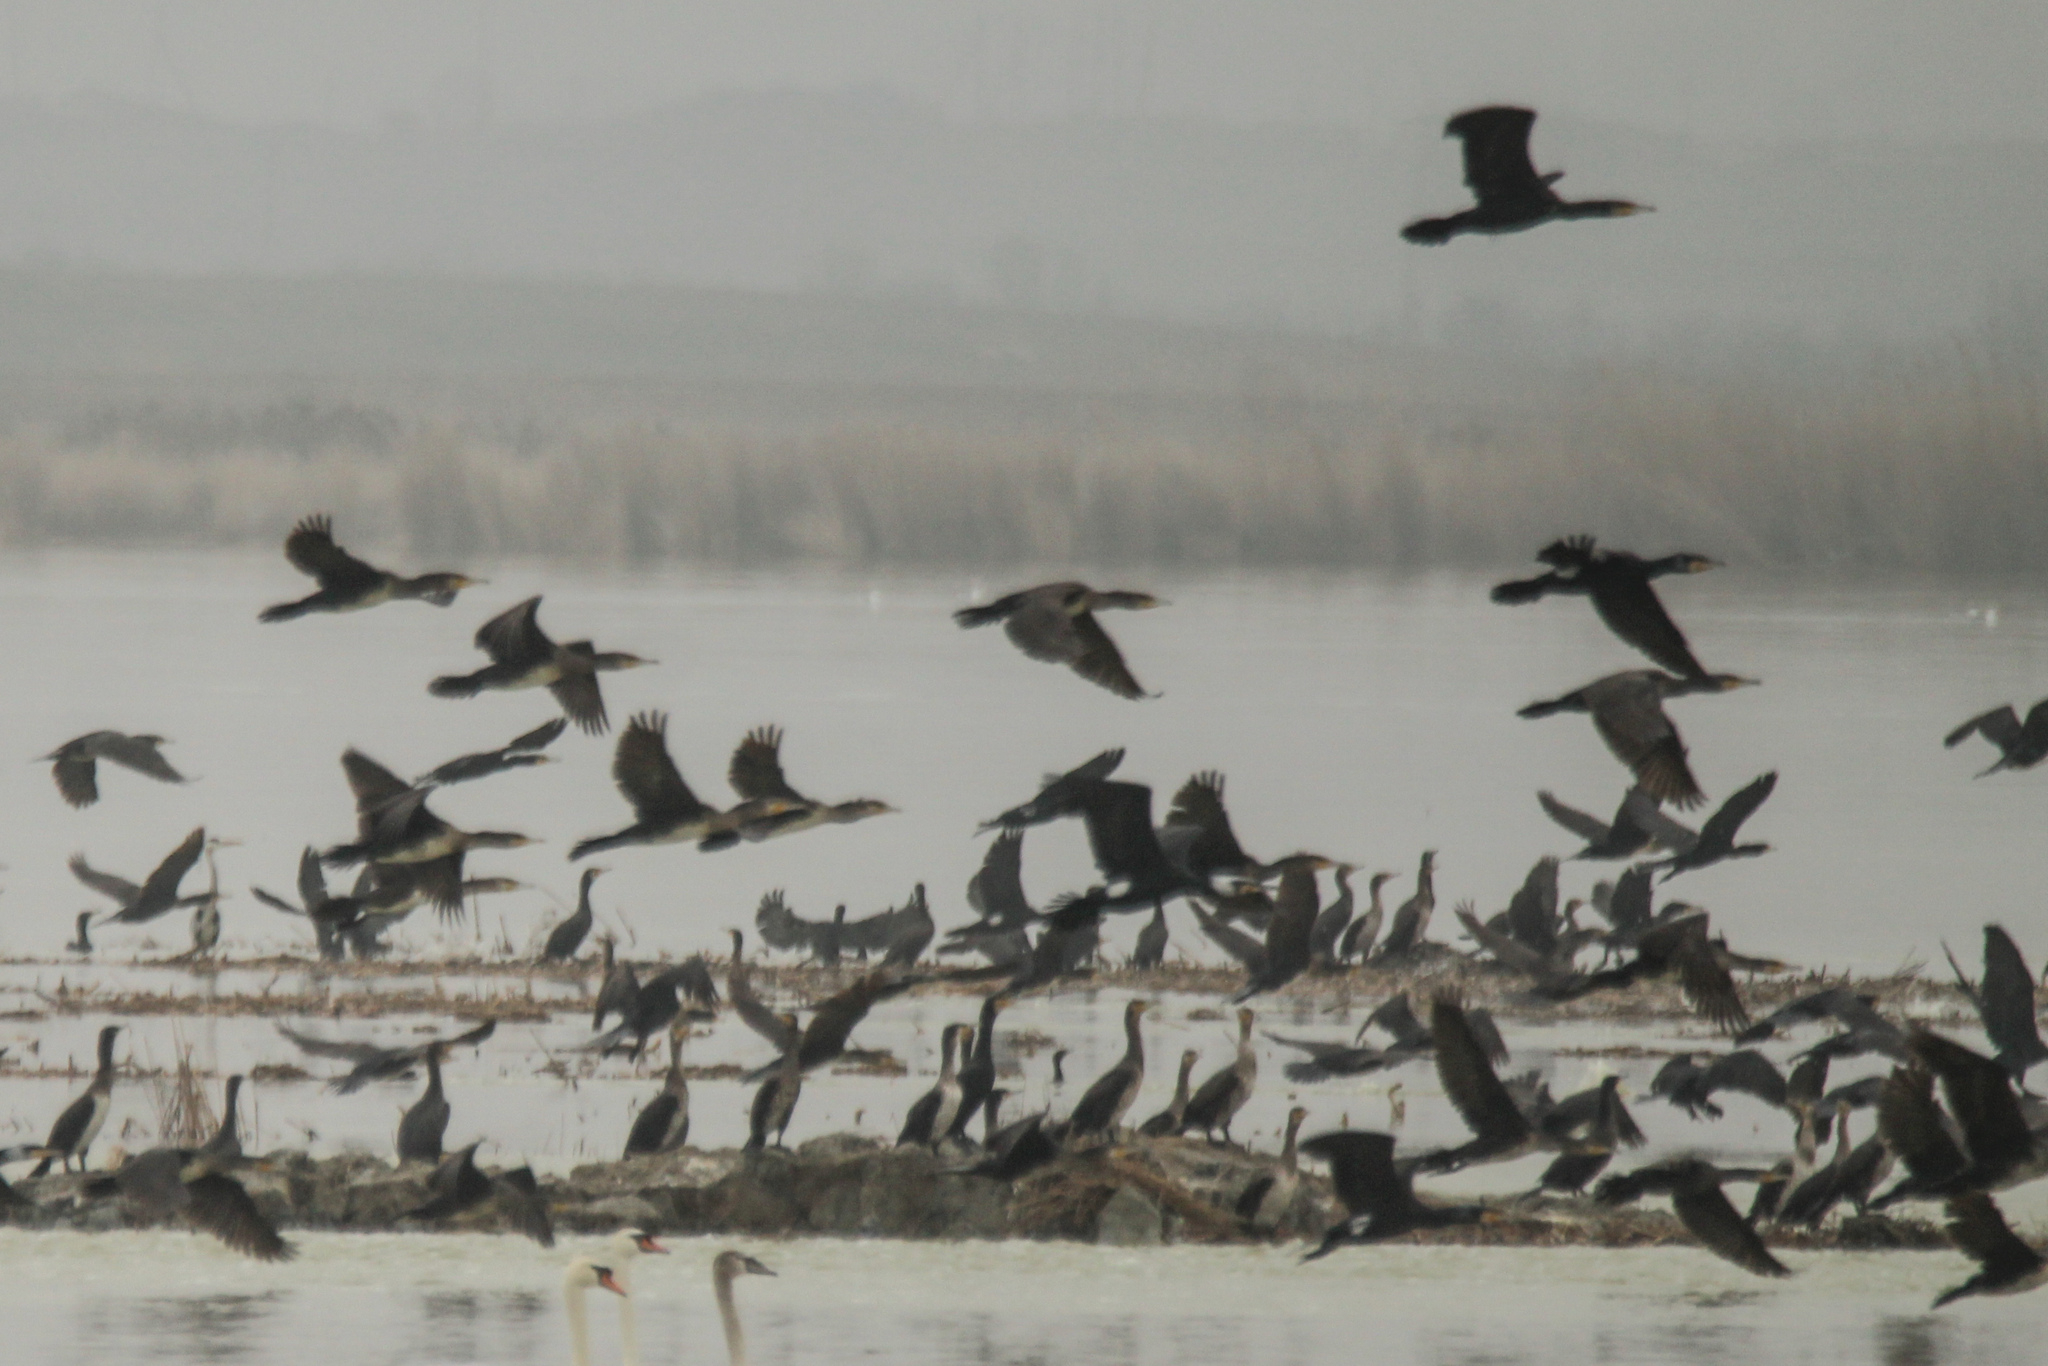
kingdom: Animalia
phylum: Chordata
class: Aves
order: Suliformes
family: Phalacrocoracidae
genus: Phalacrocorax
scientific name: Phalacrocorax carbo
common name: Great cormorant
